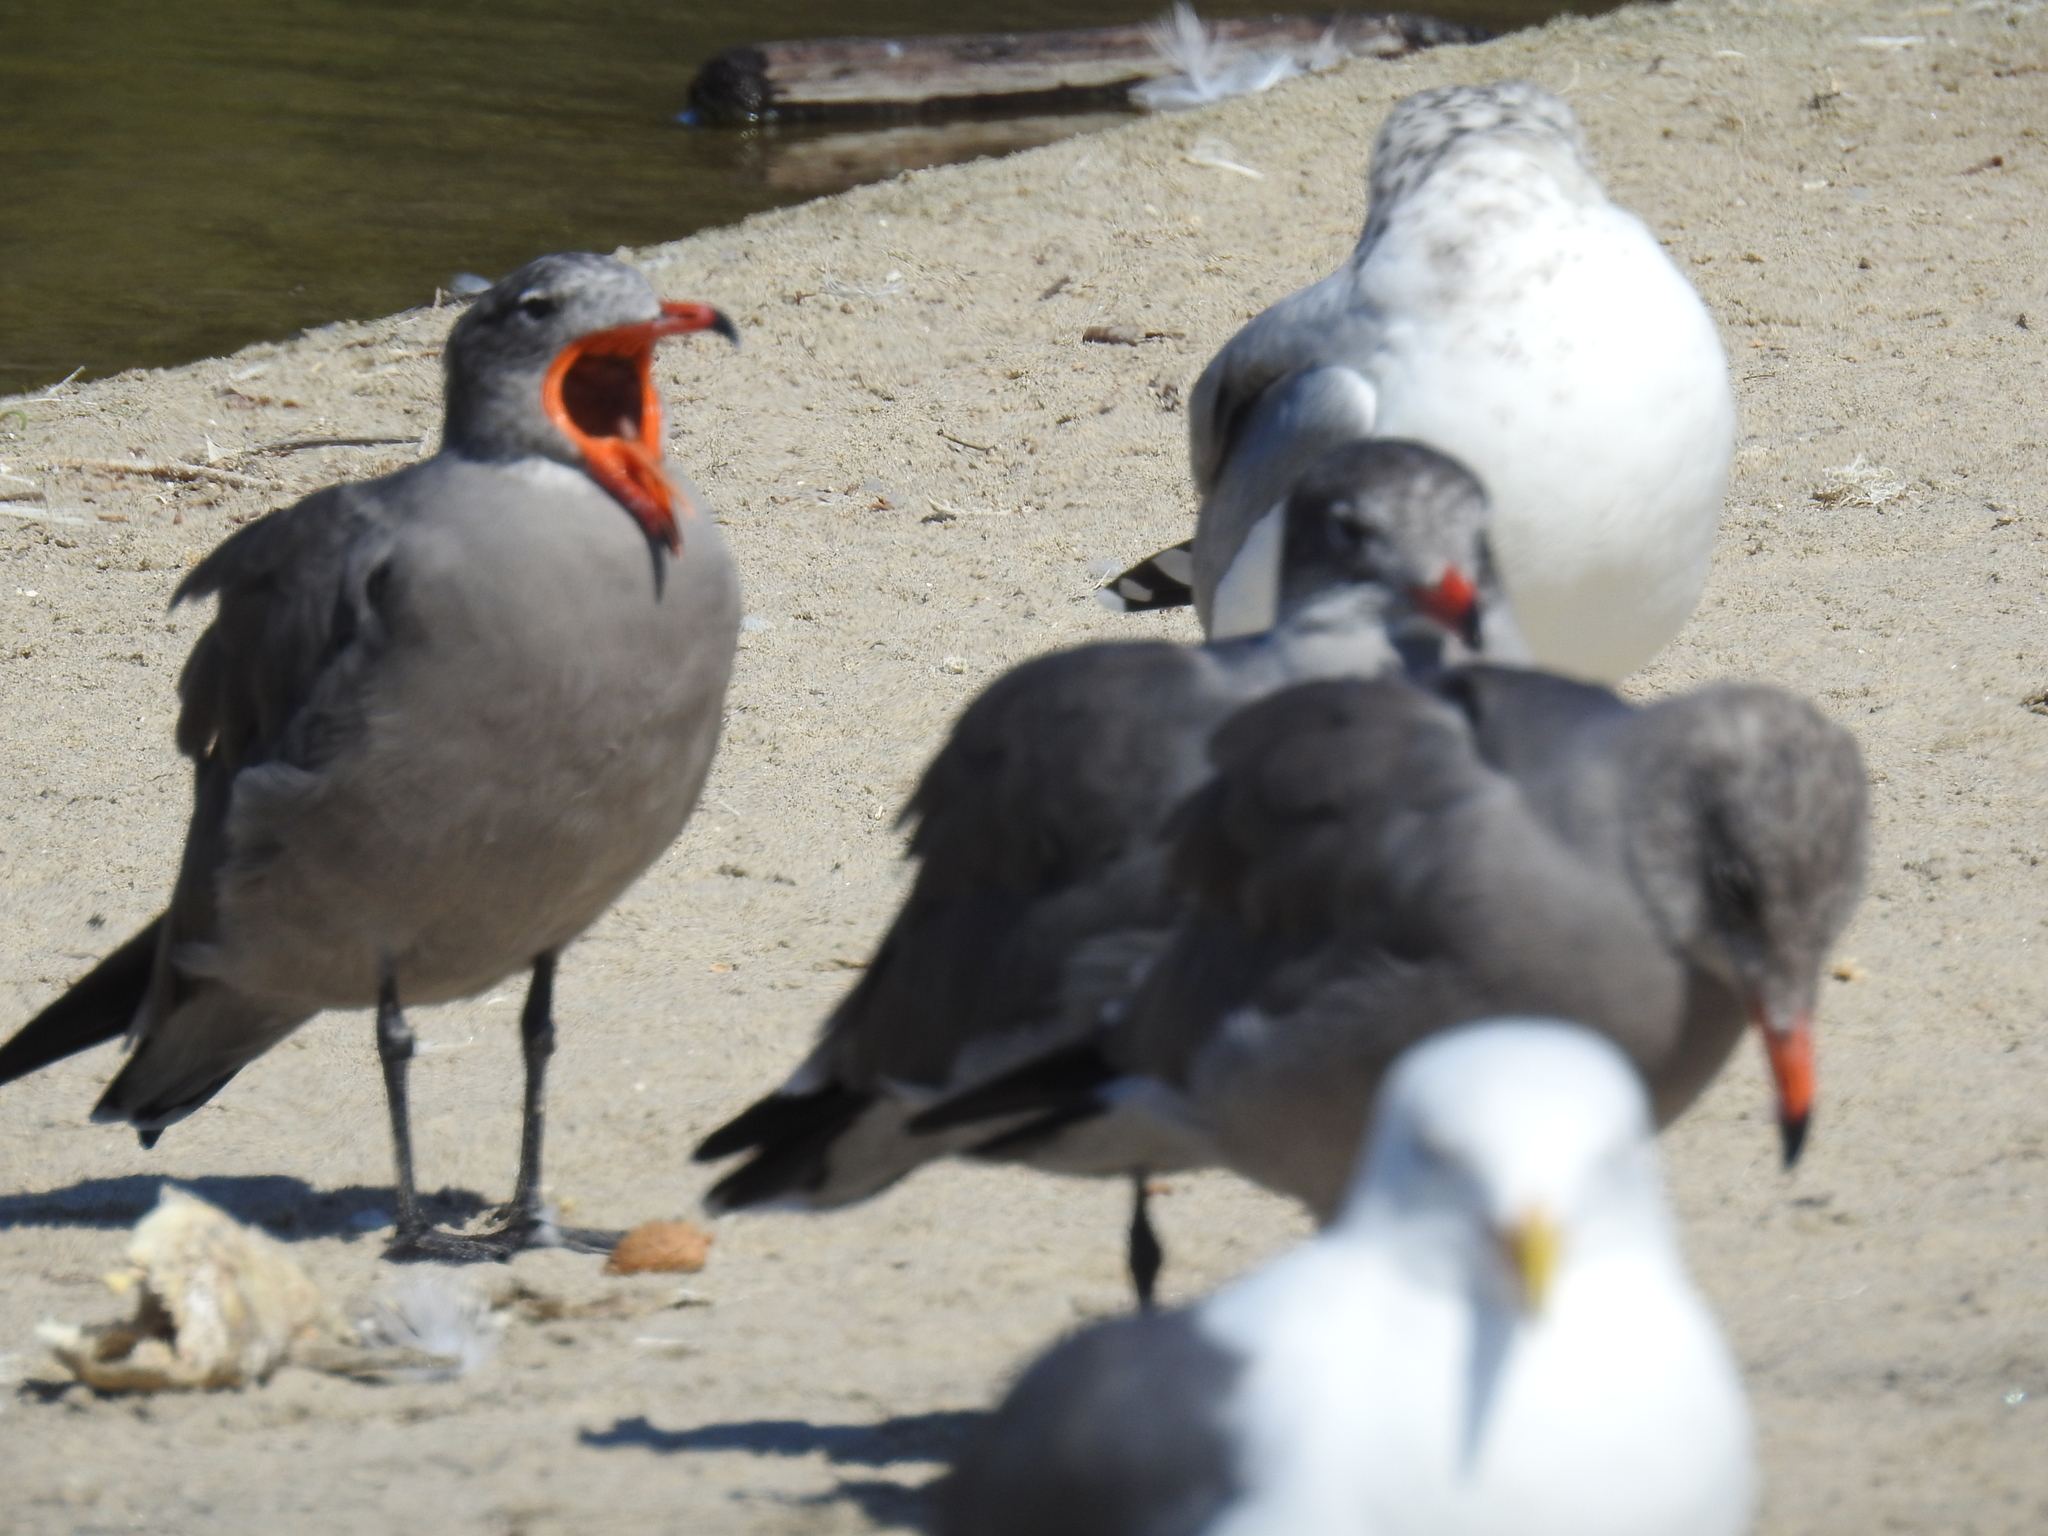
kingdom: Animalia
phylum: Chordata
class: Aves
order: Charadriiformes
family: Laridae
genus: Larus
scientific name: Larus heermanni
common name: Heermann's gull
